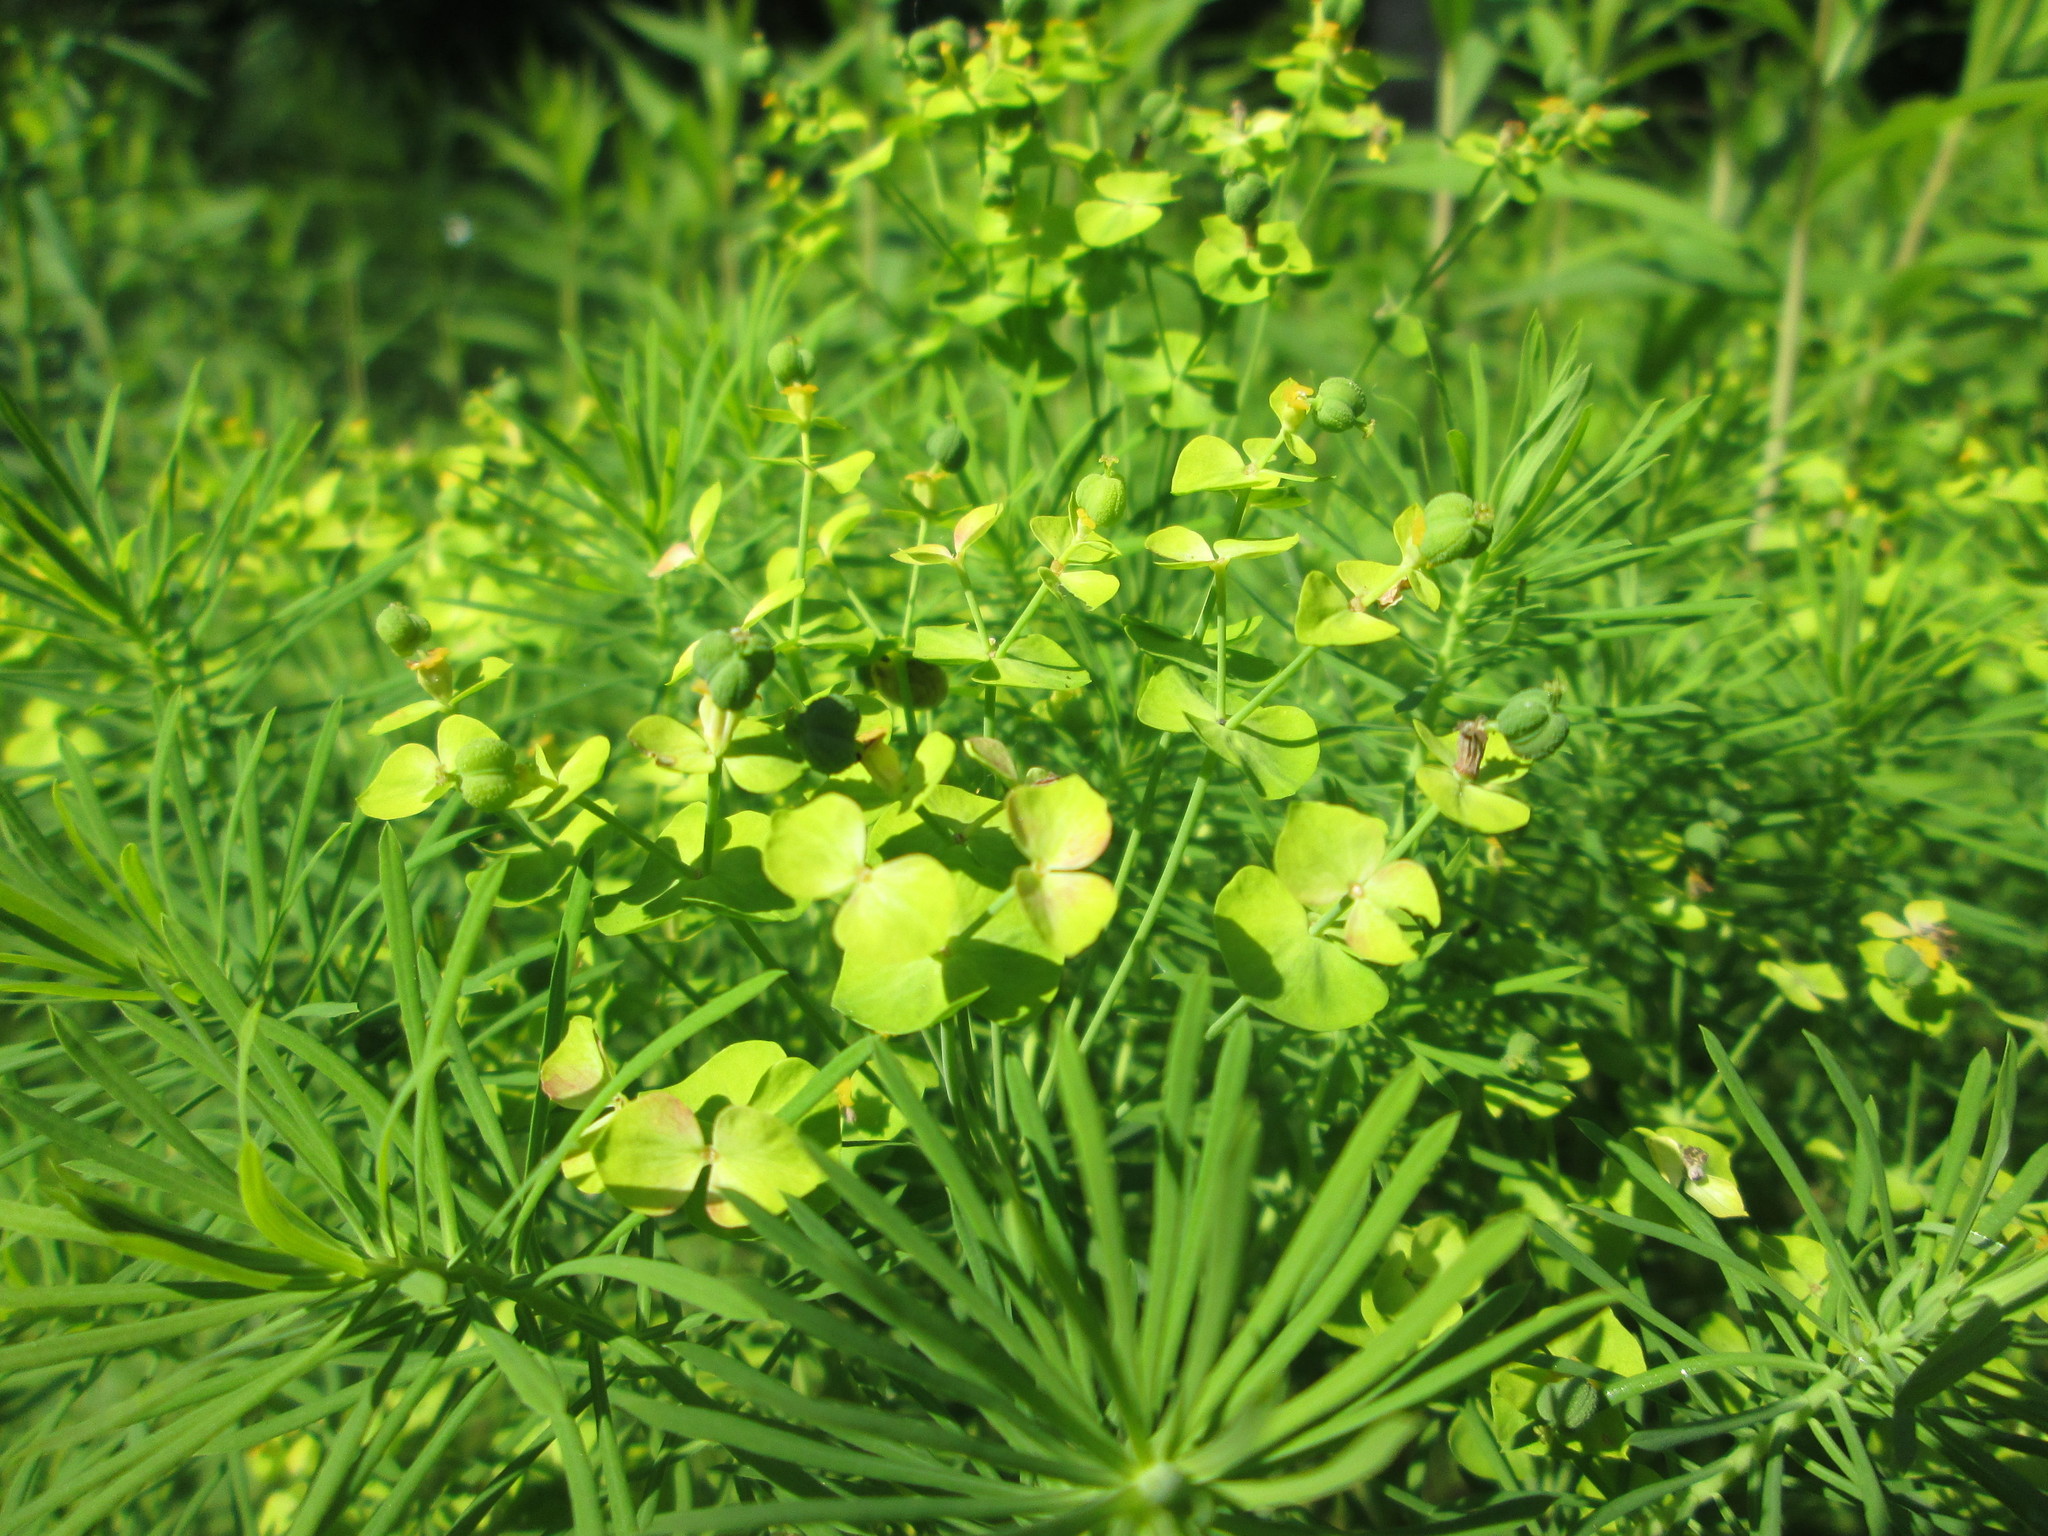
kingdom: Plantae
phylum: Tracheophyta
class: Magnoliopsida
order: Malpighiales
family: Euphorbiaceae
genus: Euphorbia
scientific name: Euphorbia cyparissias
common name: Cypress spurge
